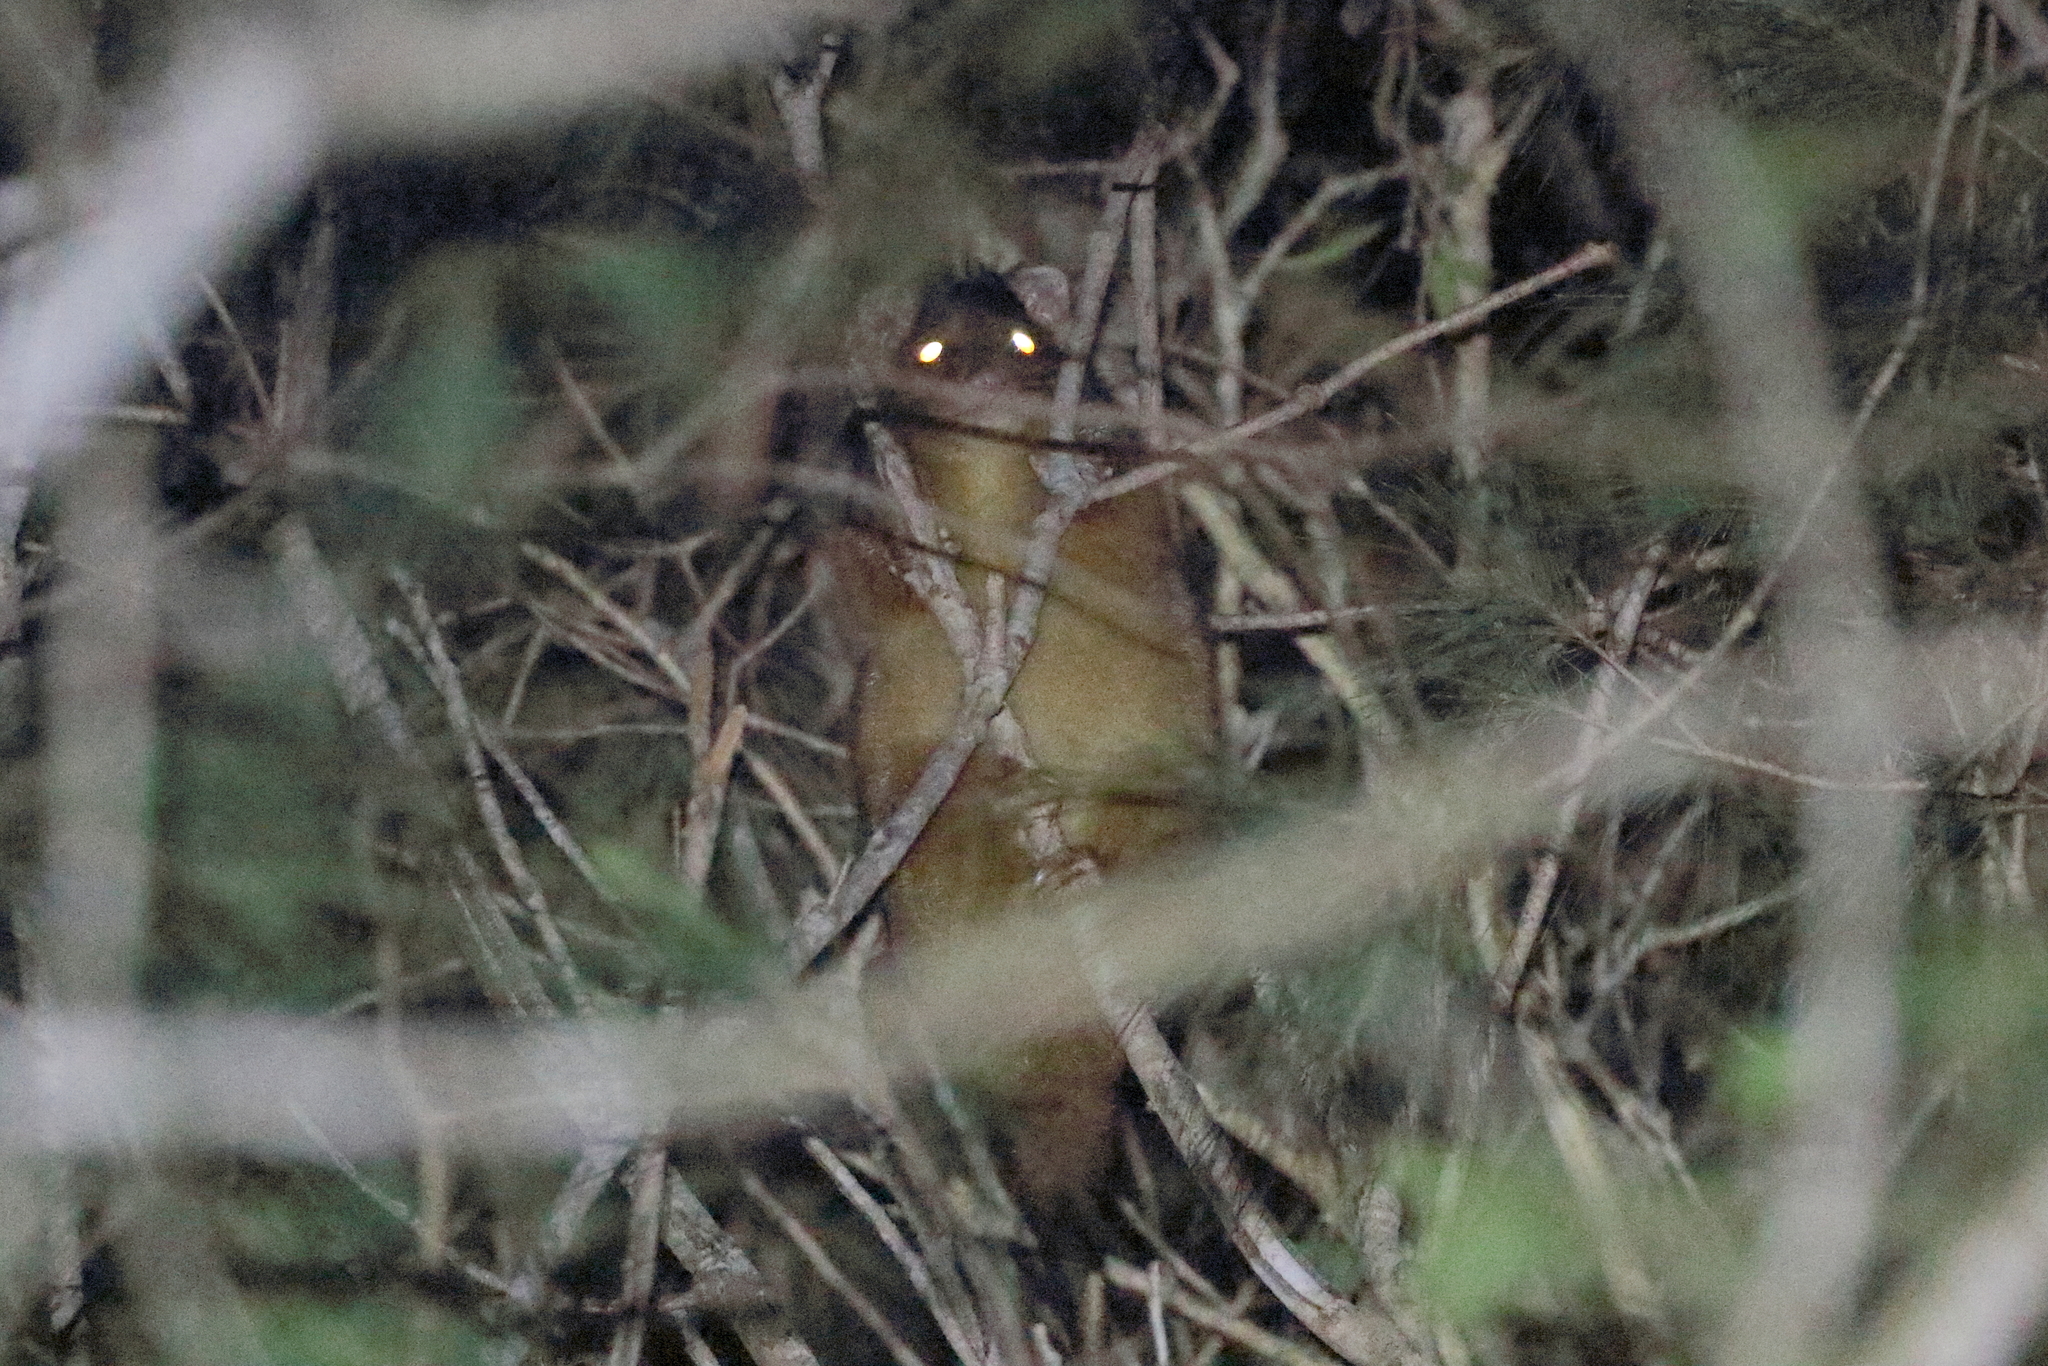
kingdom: Animalia
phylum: Chordata
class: Mammalia
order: Diprotodontia
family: Pseudocheiridae
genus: Pseudocheirus
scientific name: Pseudocheirus peregrinus
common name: Common ringtail possum
